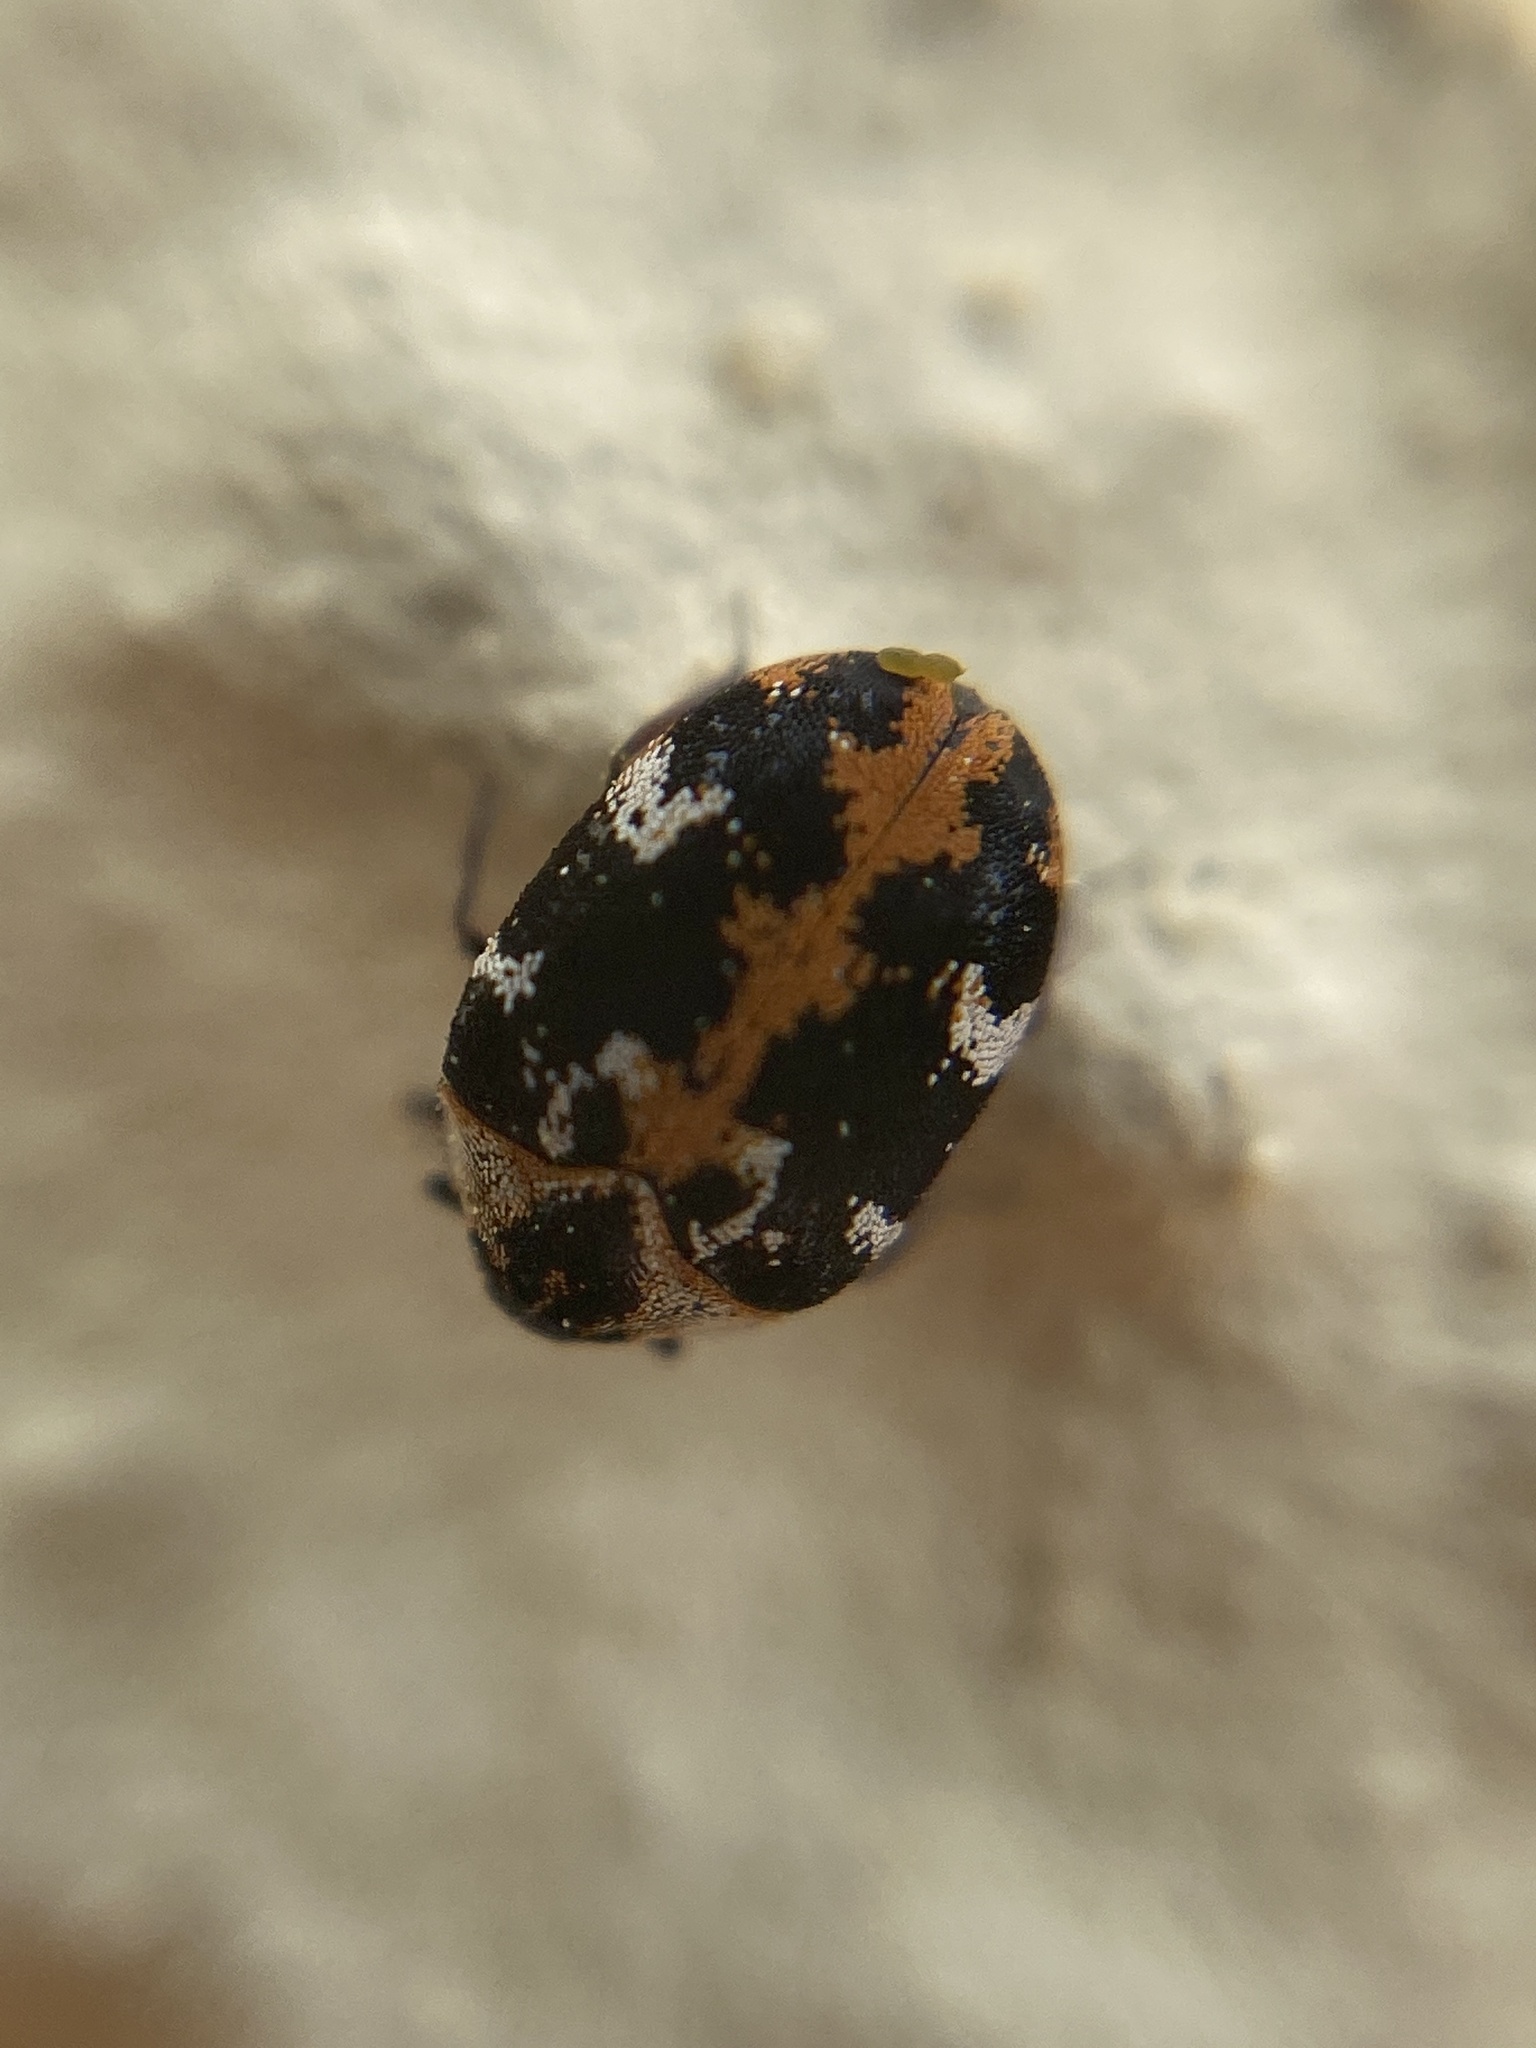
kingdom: Animalia
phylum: Arthropoda
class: Insecta
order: Coleoptera
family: Dermestidae
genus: Anthrenus
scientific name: Anthrenus scrophulariae
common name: Buffalo carpet beetle
